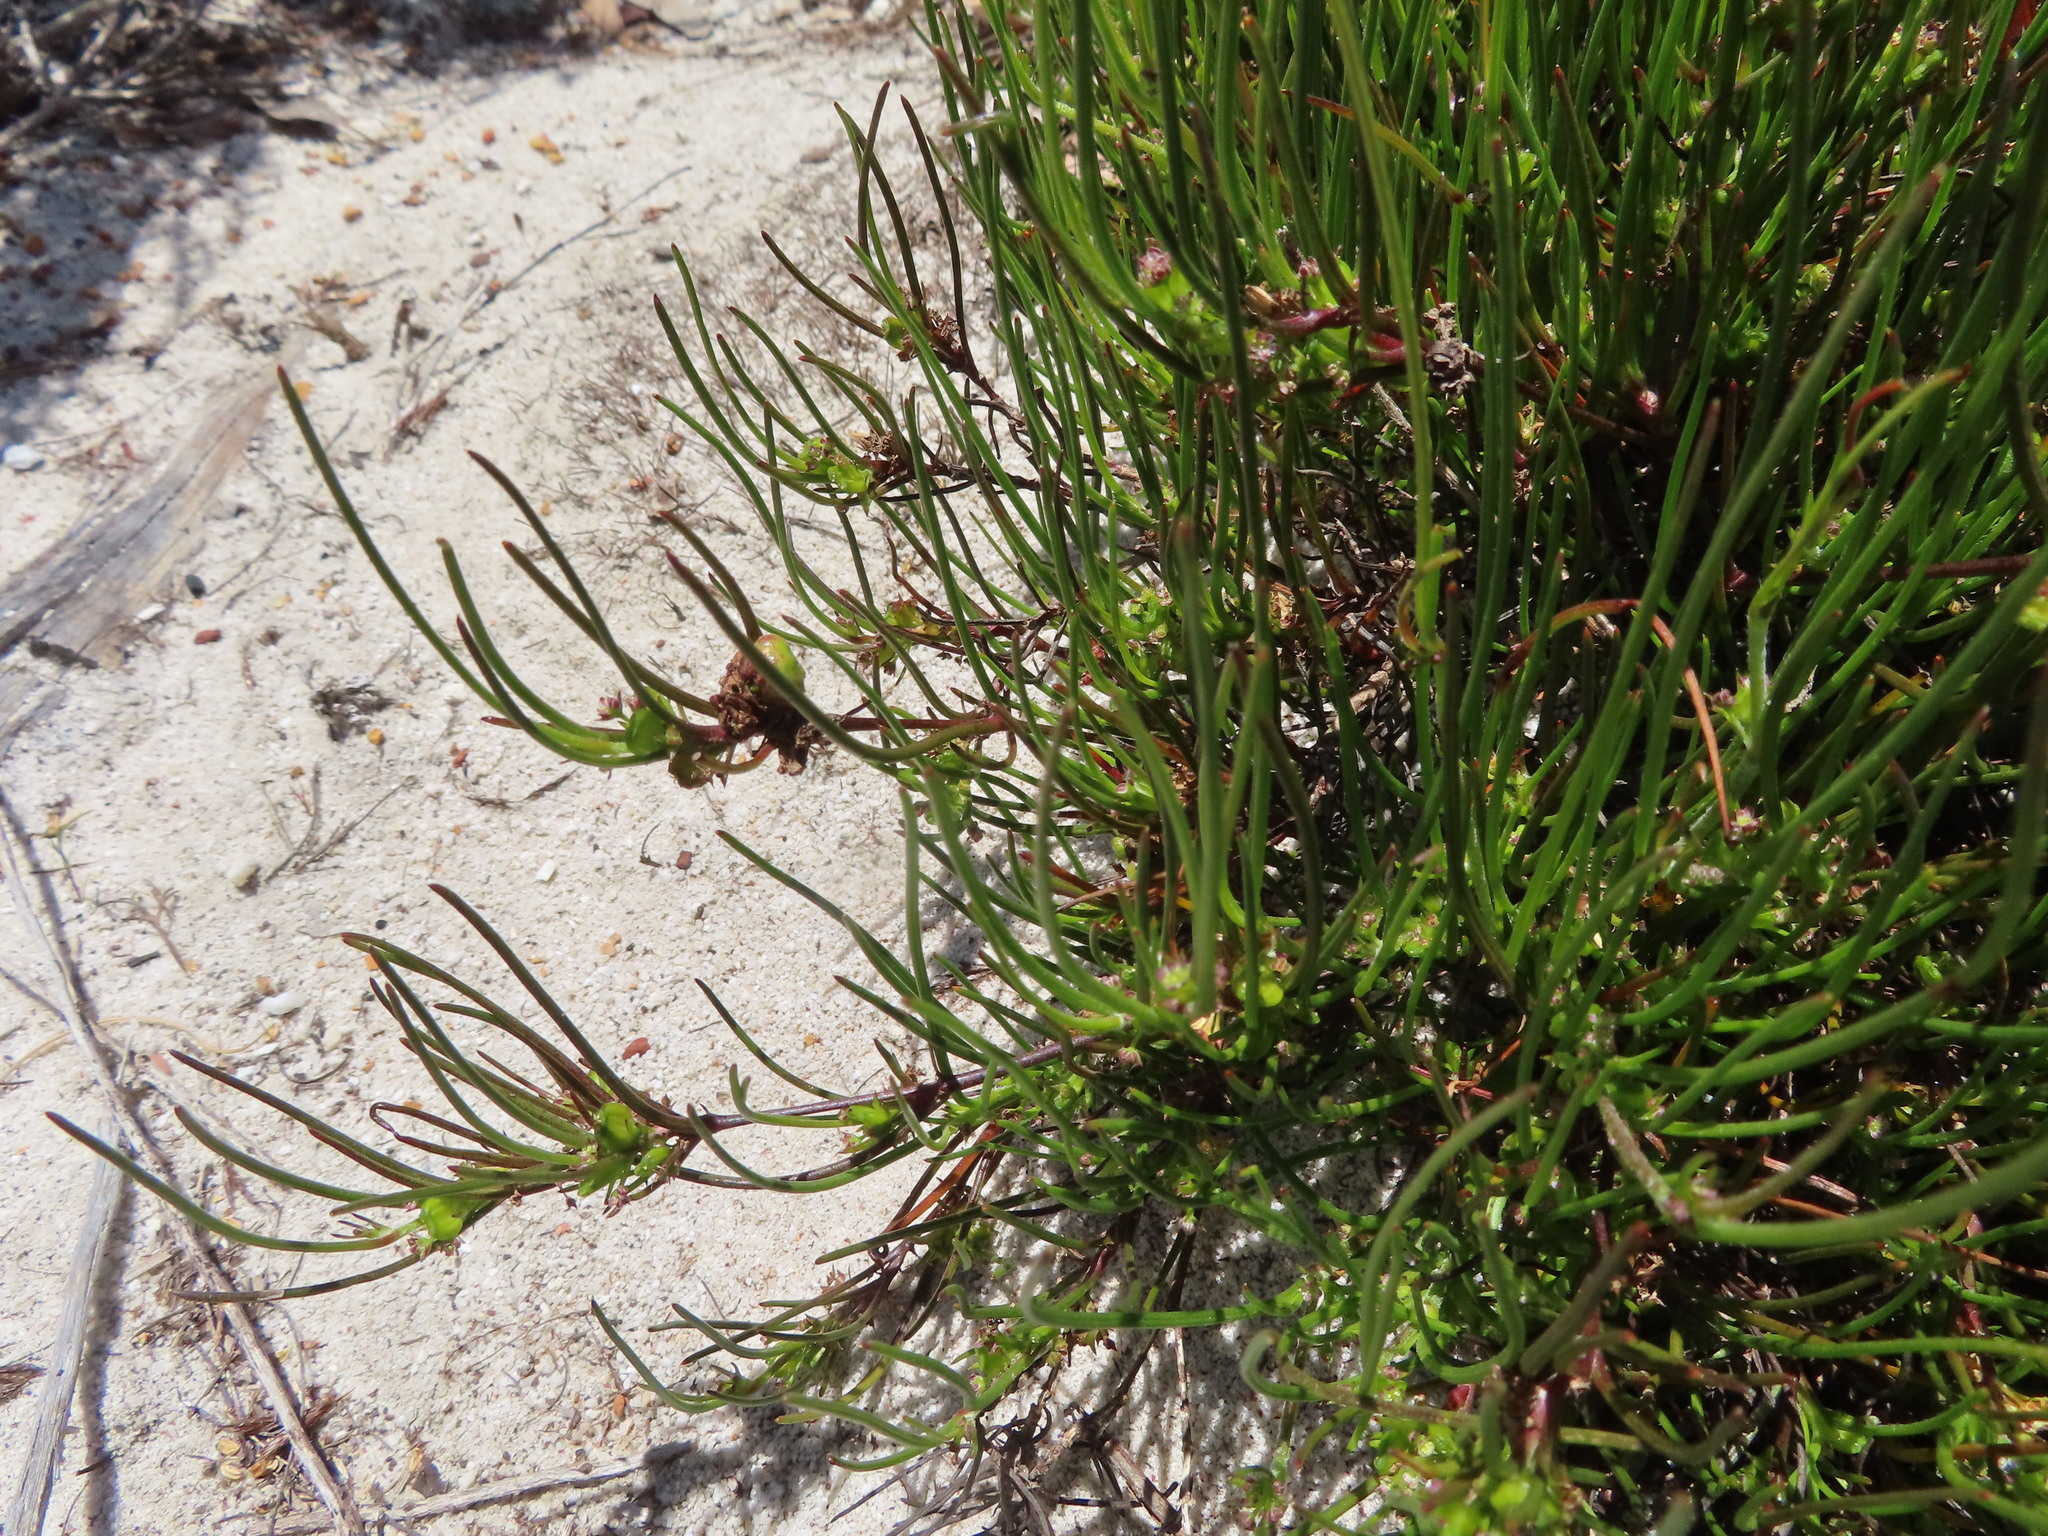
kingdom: Plantae
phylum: Tracheophyta
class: Magnoliopsida
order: Apiales
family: Apiaceae
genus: Centella
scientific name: Centella macrocarpa
